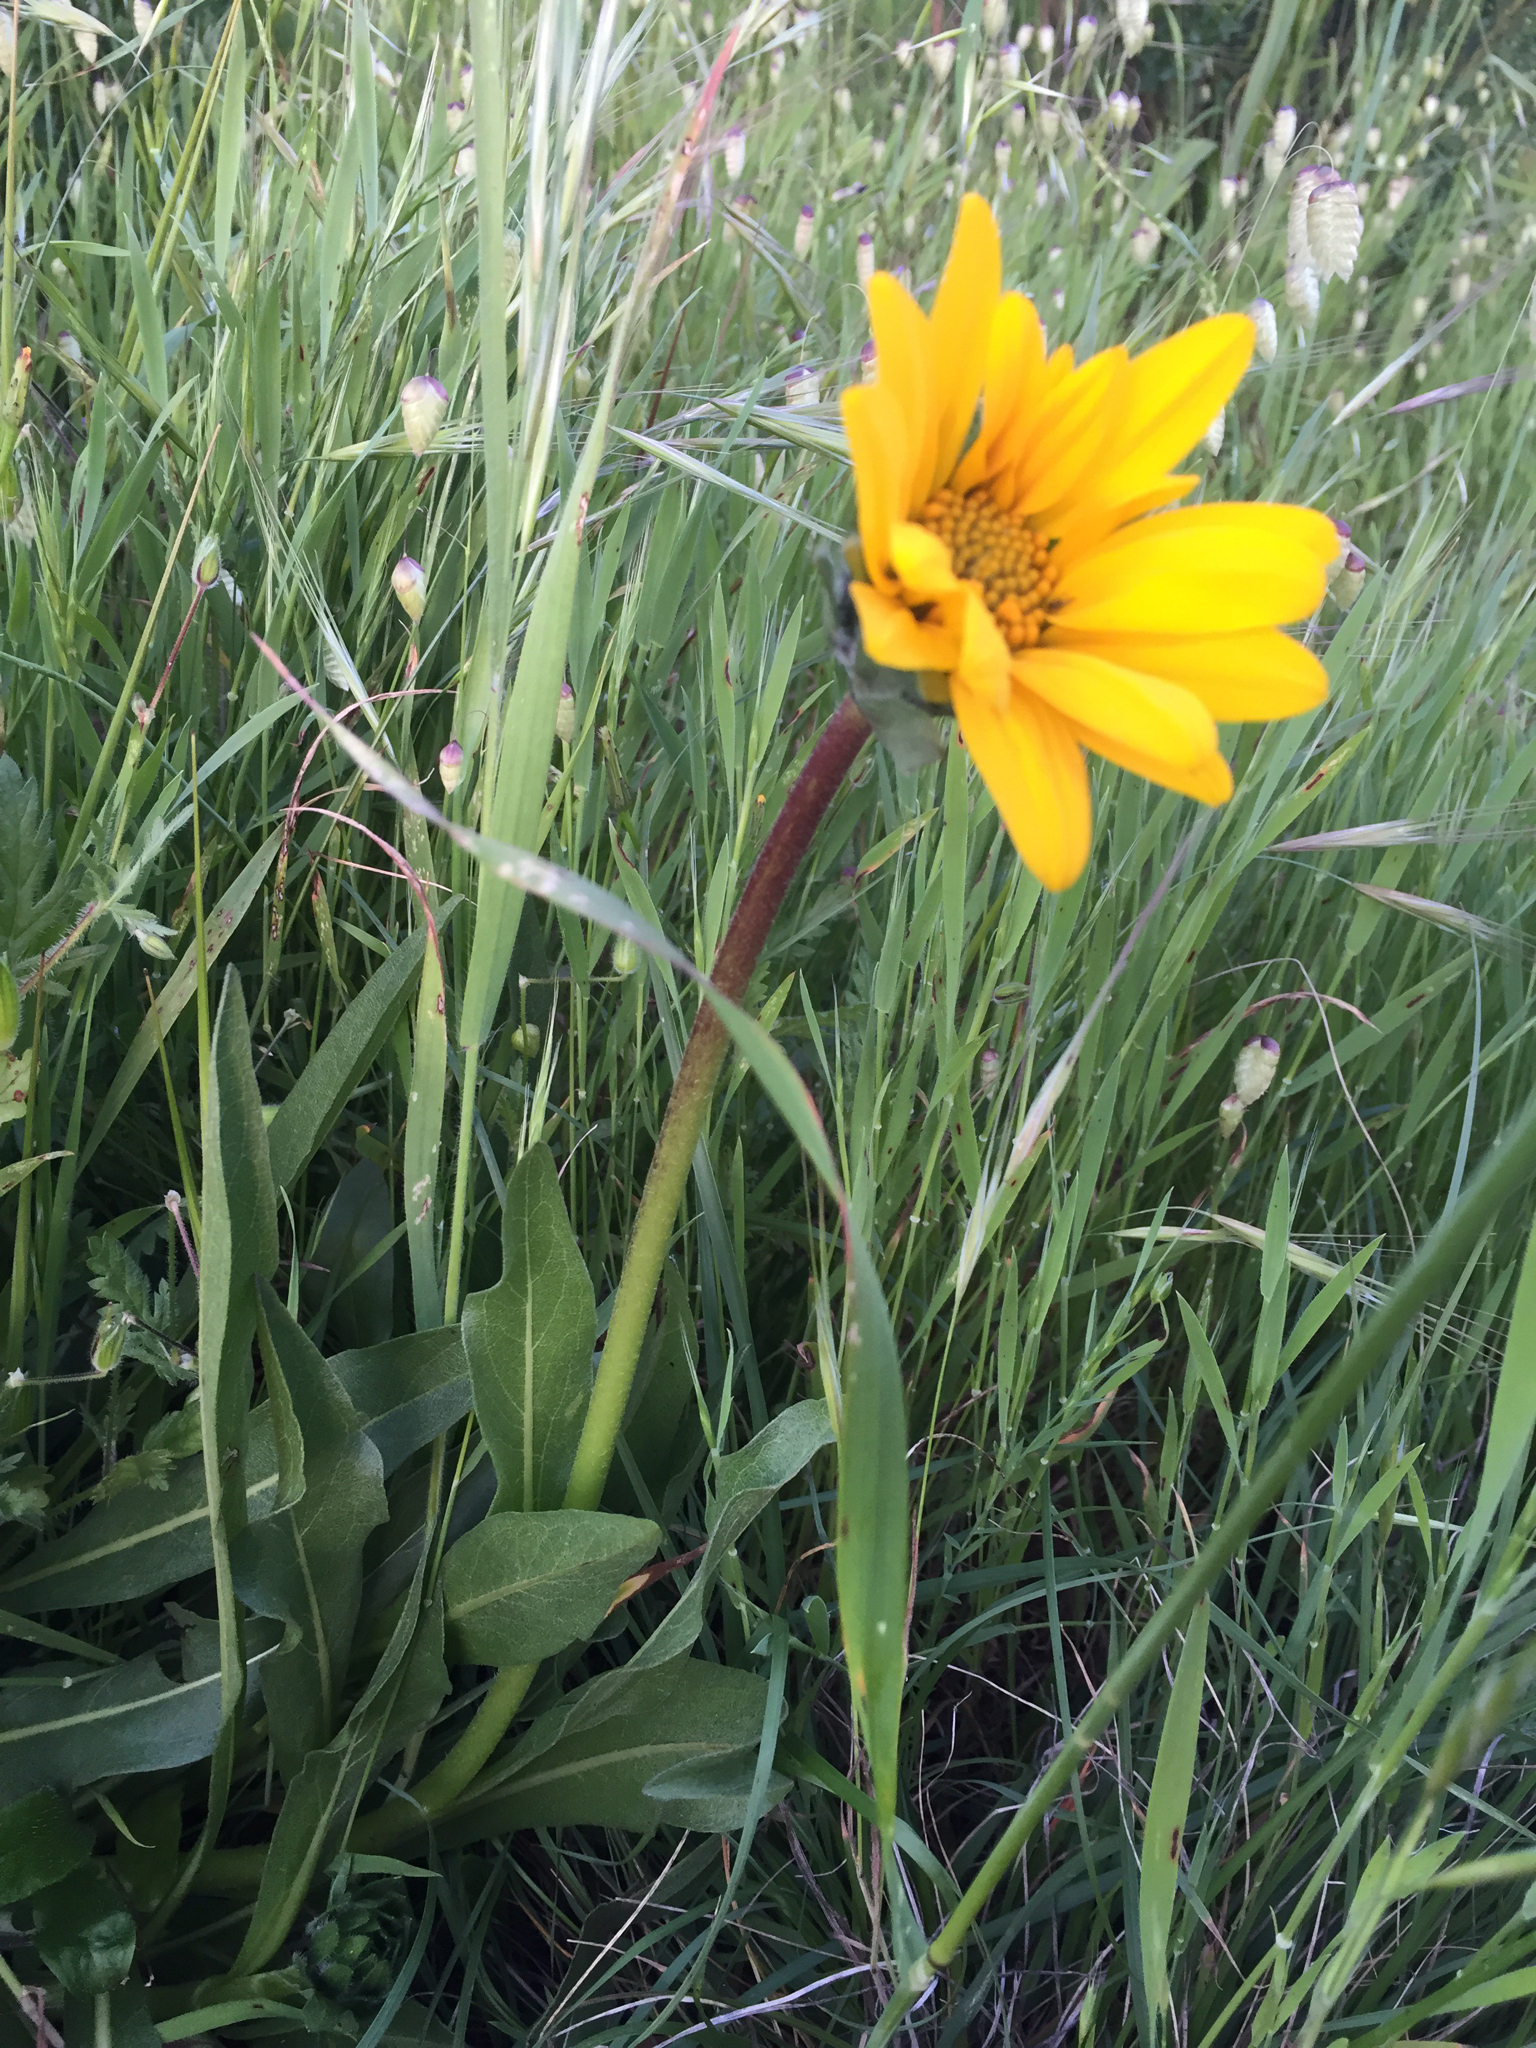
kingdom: Plantae
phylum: Tracheophyta
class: Magnoliopsida
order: Asterales
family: Asteraceae
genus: Wyethia
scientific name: Wyethia angustifolia
